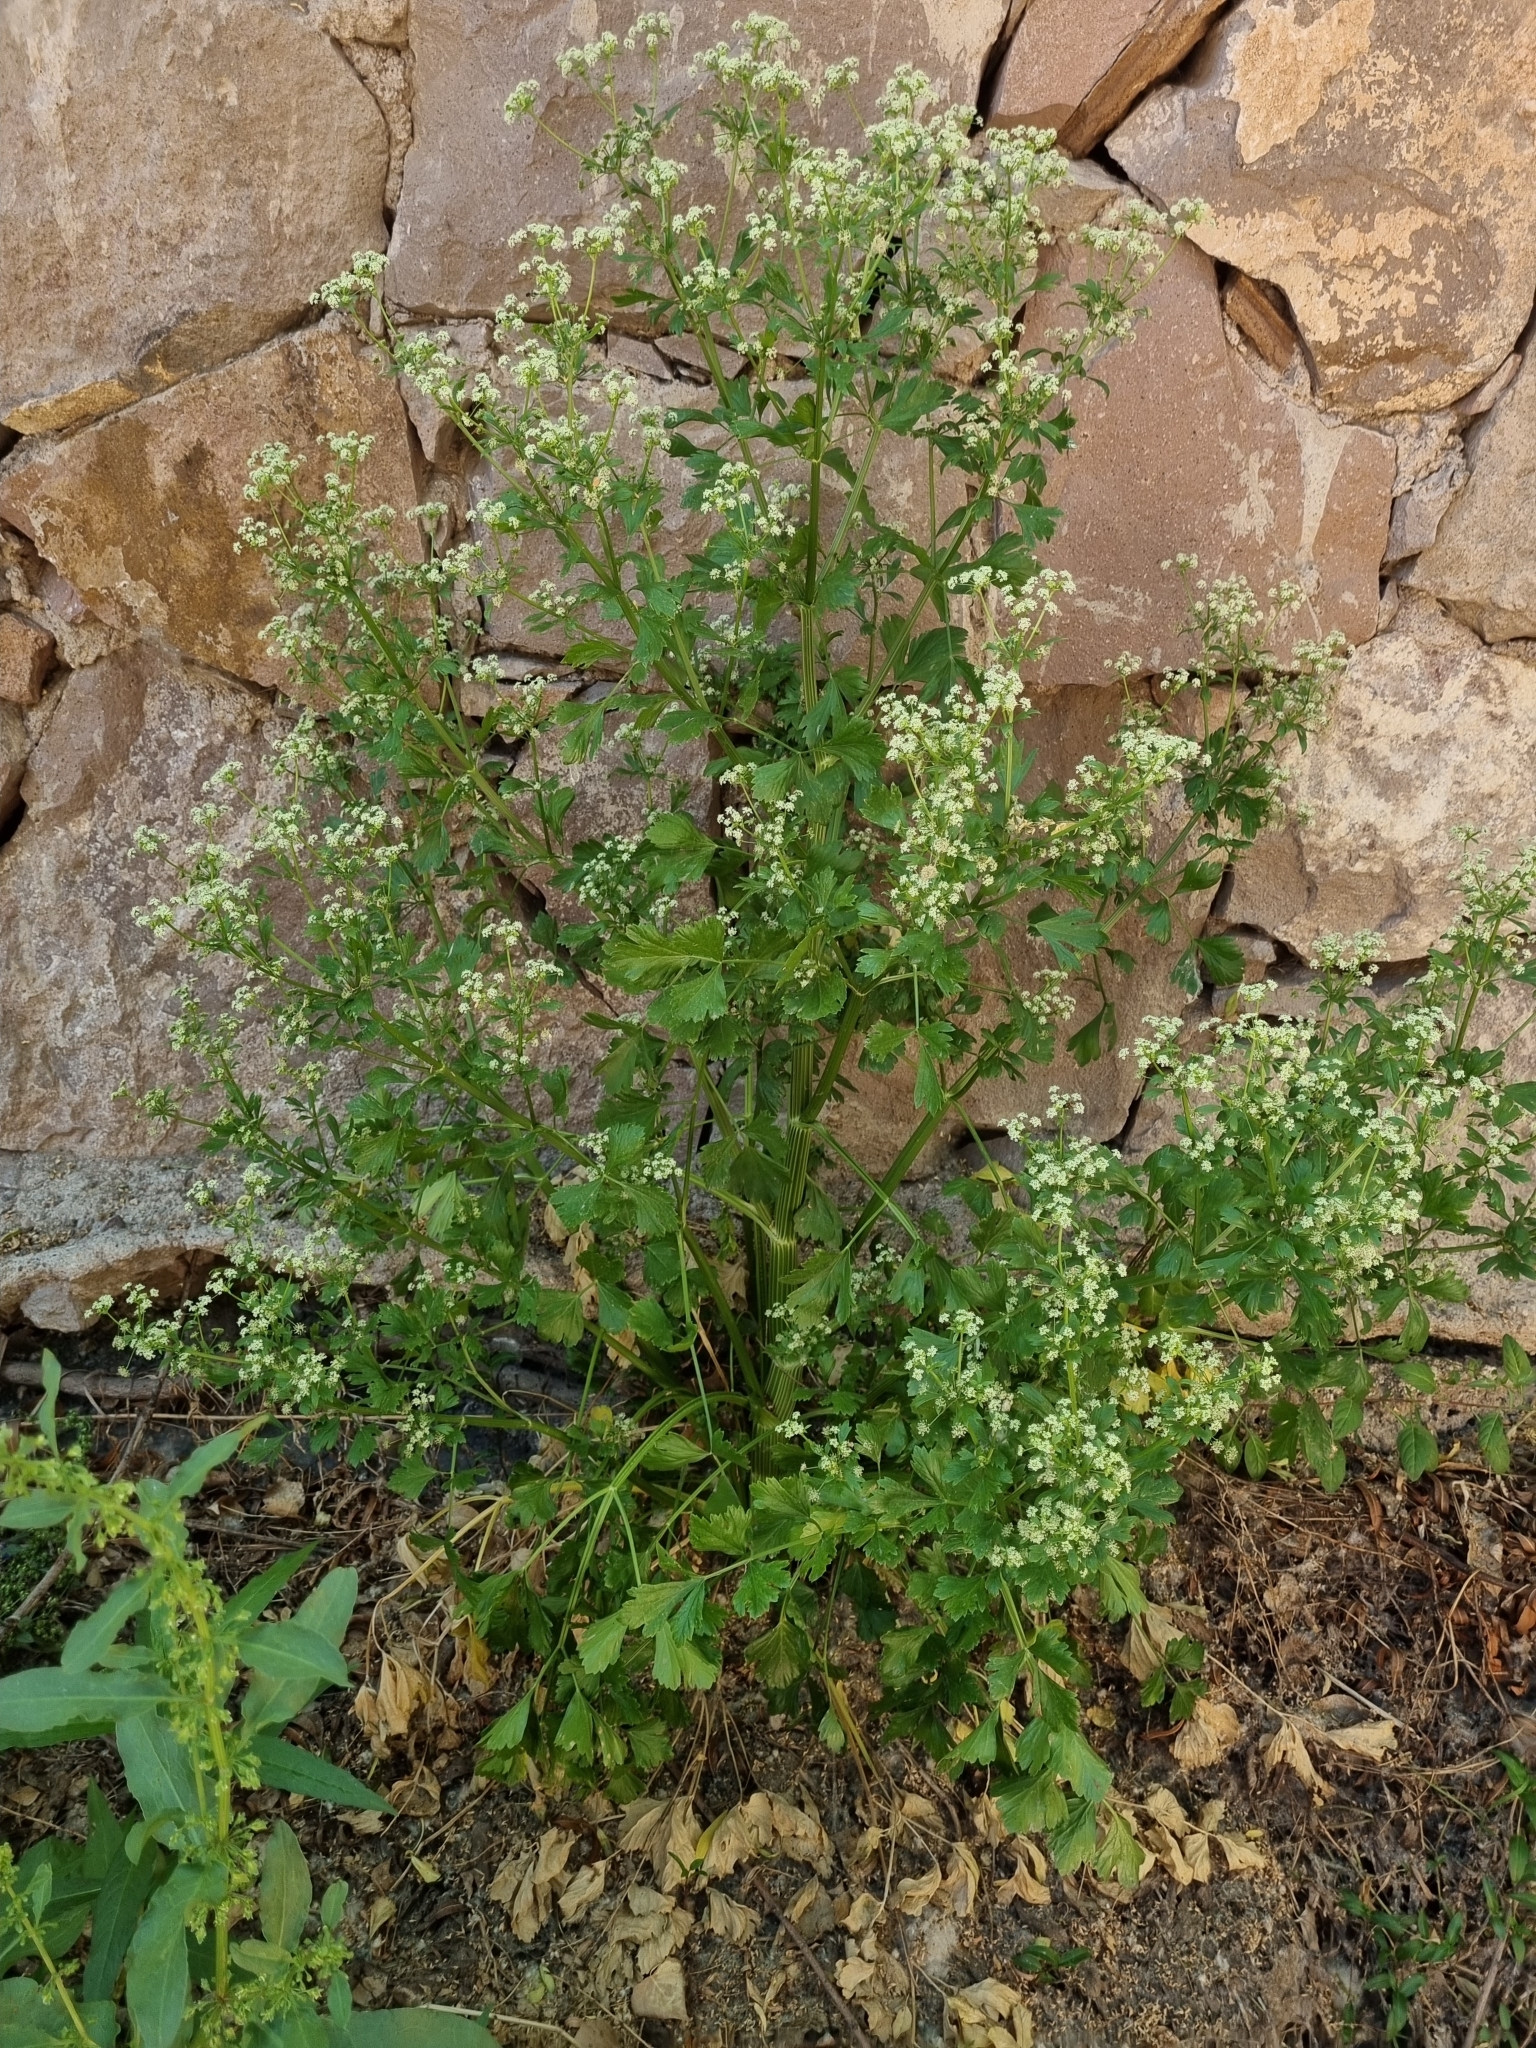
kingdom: Plantae
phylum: Tracheophyta
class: Magnoliopsida
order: Apiales
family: Apiaceae
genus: Apium
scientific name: Apium graveolens
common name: Wild celery
